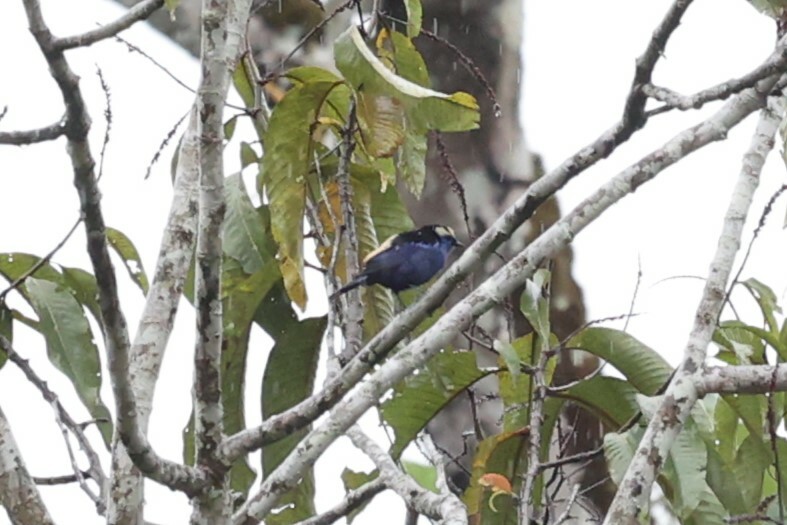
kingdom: Animalia
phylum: Chordata
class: Aves
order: Passeriformes
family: Thraupidae
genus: Tangara
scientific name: Tangara callophrys
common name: Opal-crowned tanager
